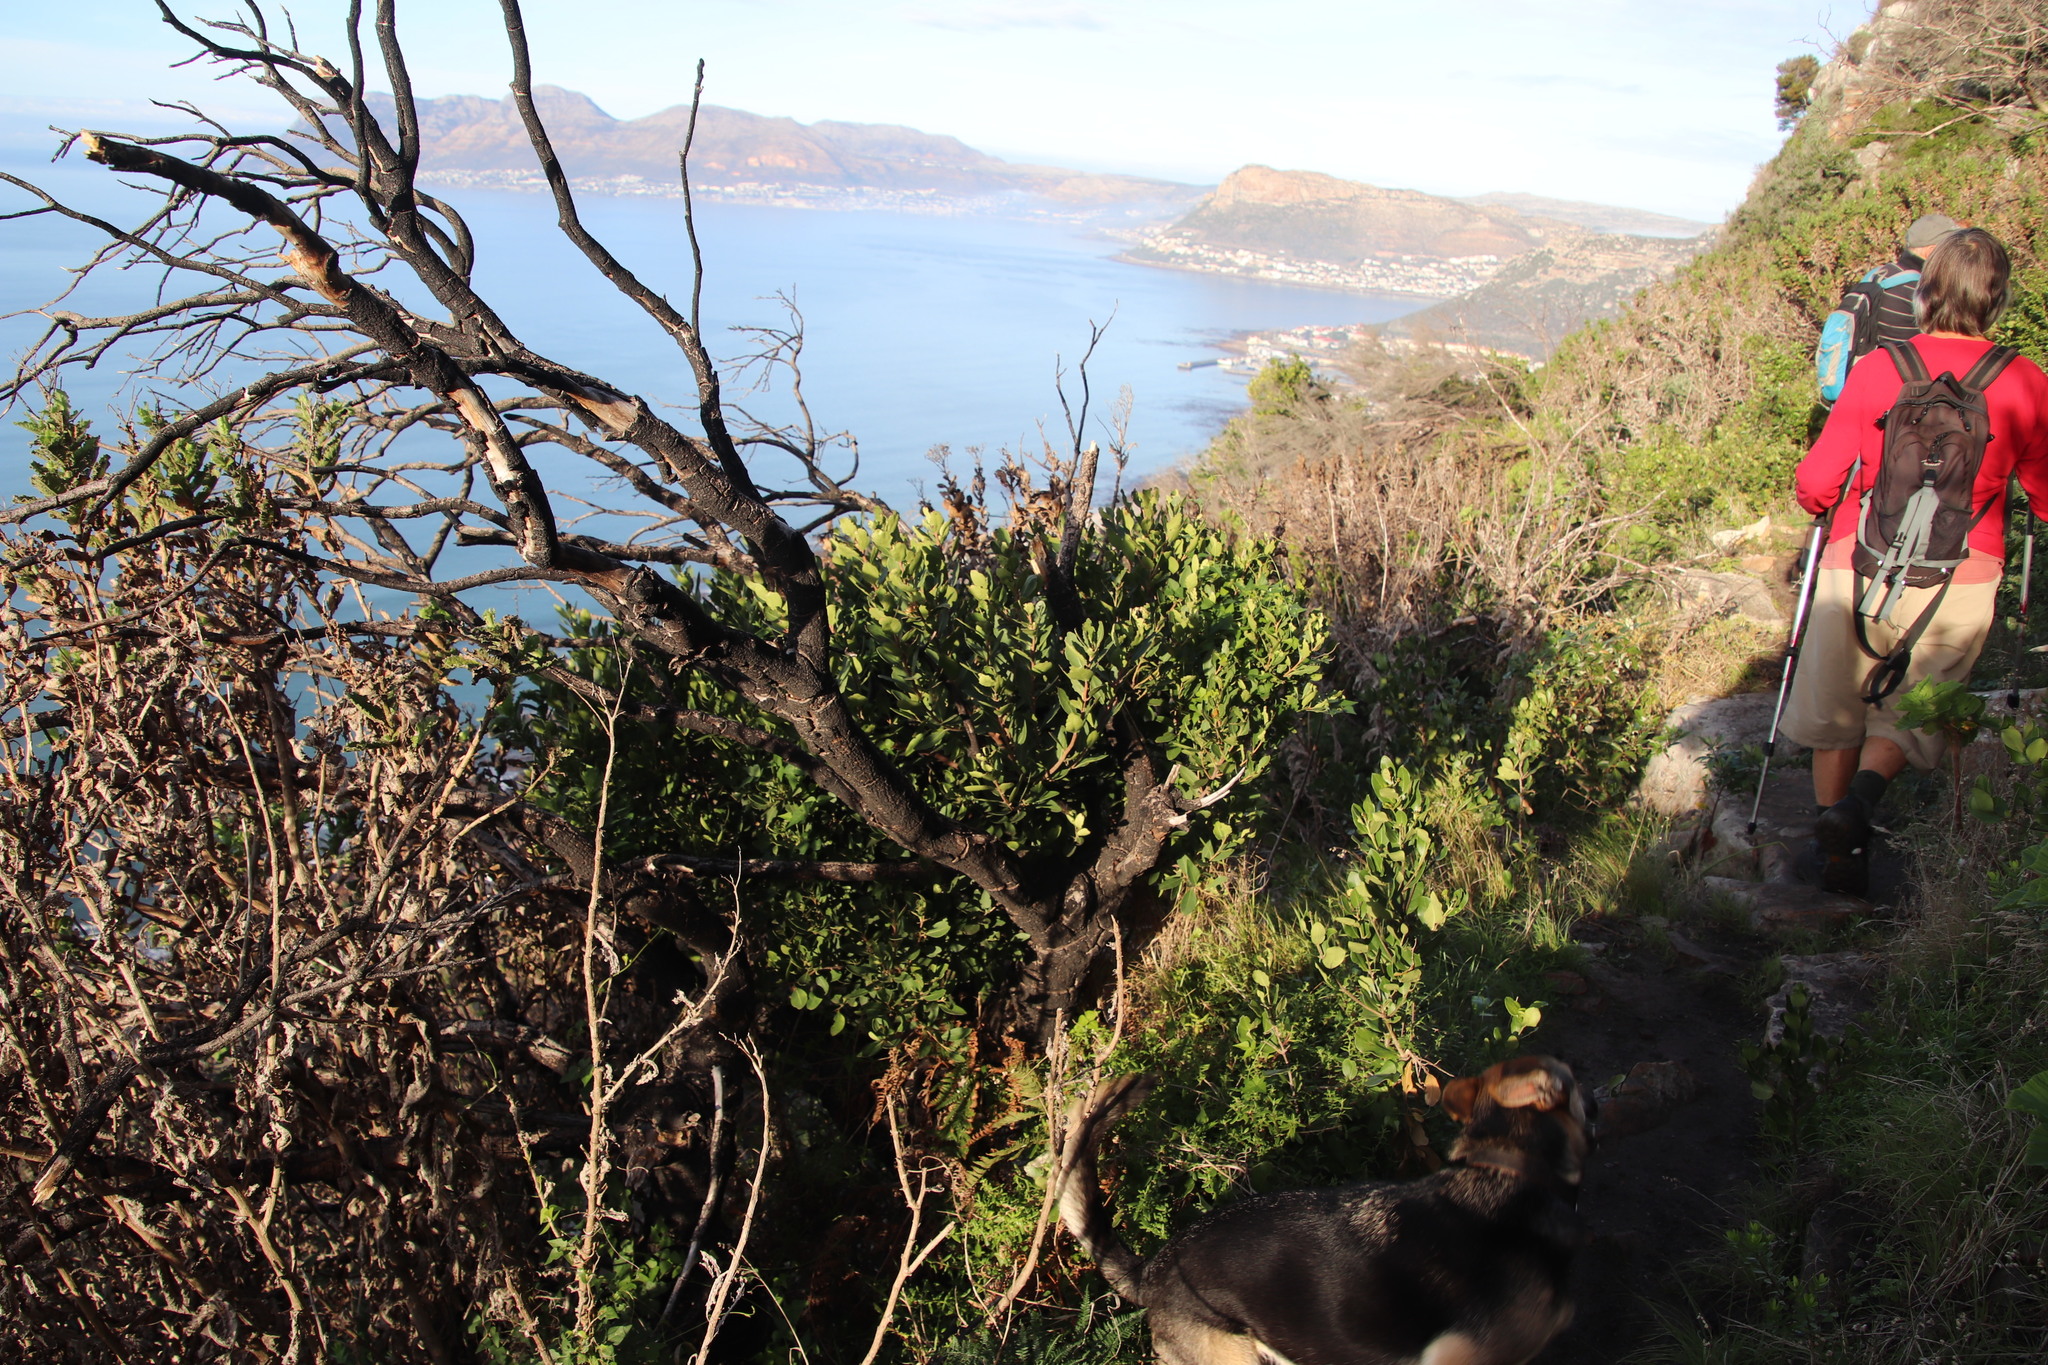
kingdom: Plantae
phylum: Tracheophyta
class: Magnoliopsida
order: Celastrales
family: Celastraceae
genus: Gymnosporia
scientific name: Gymnosporia laurina
